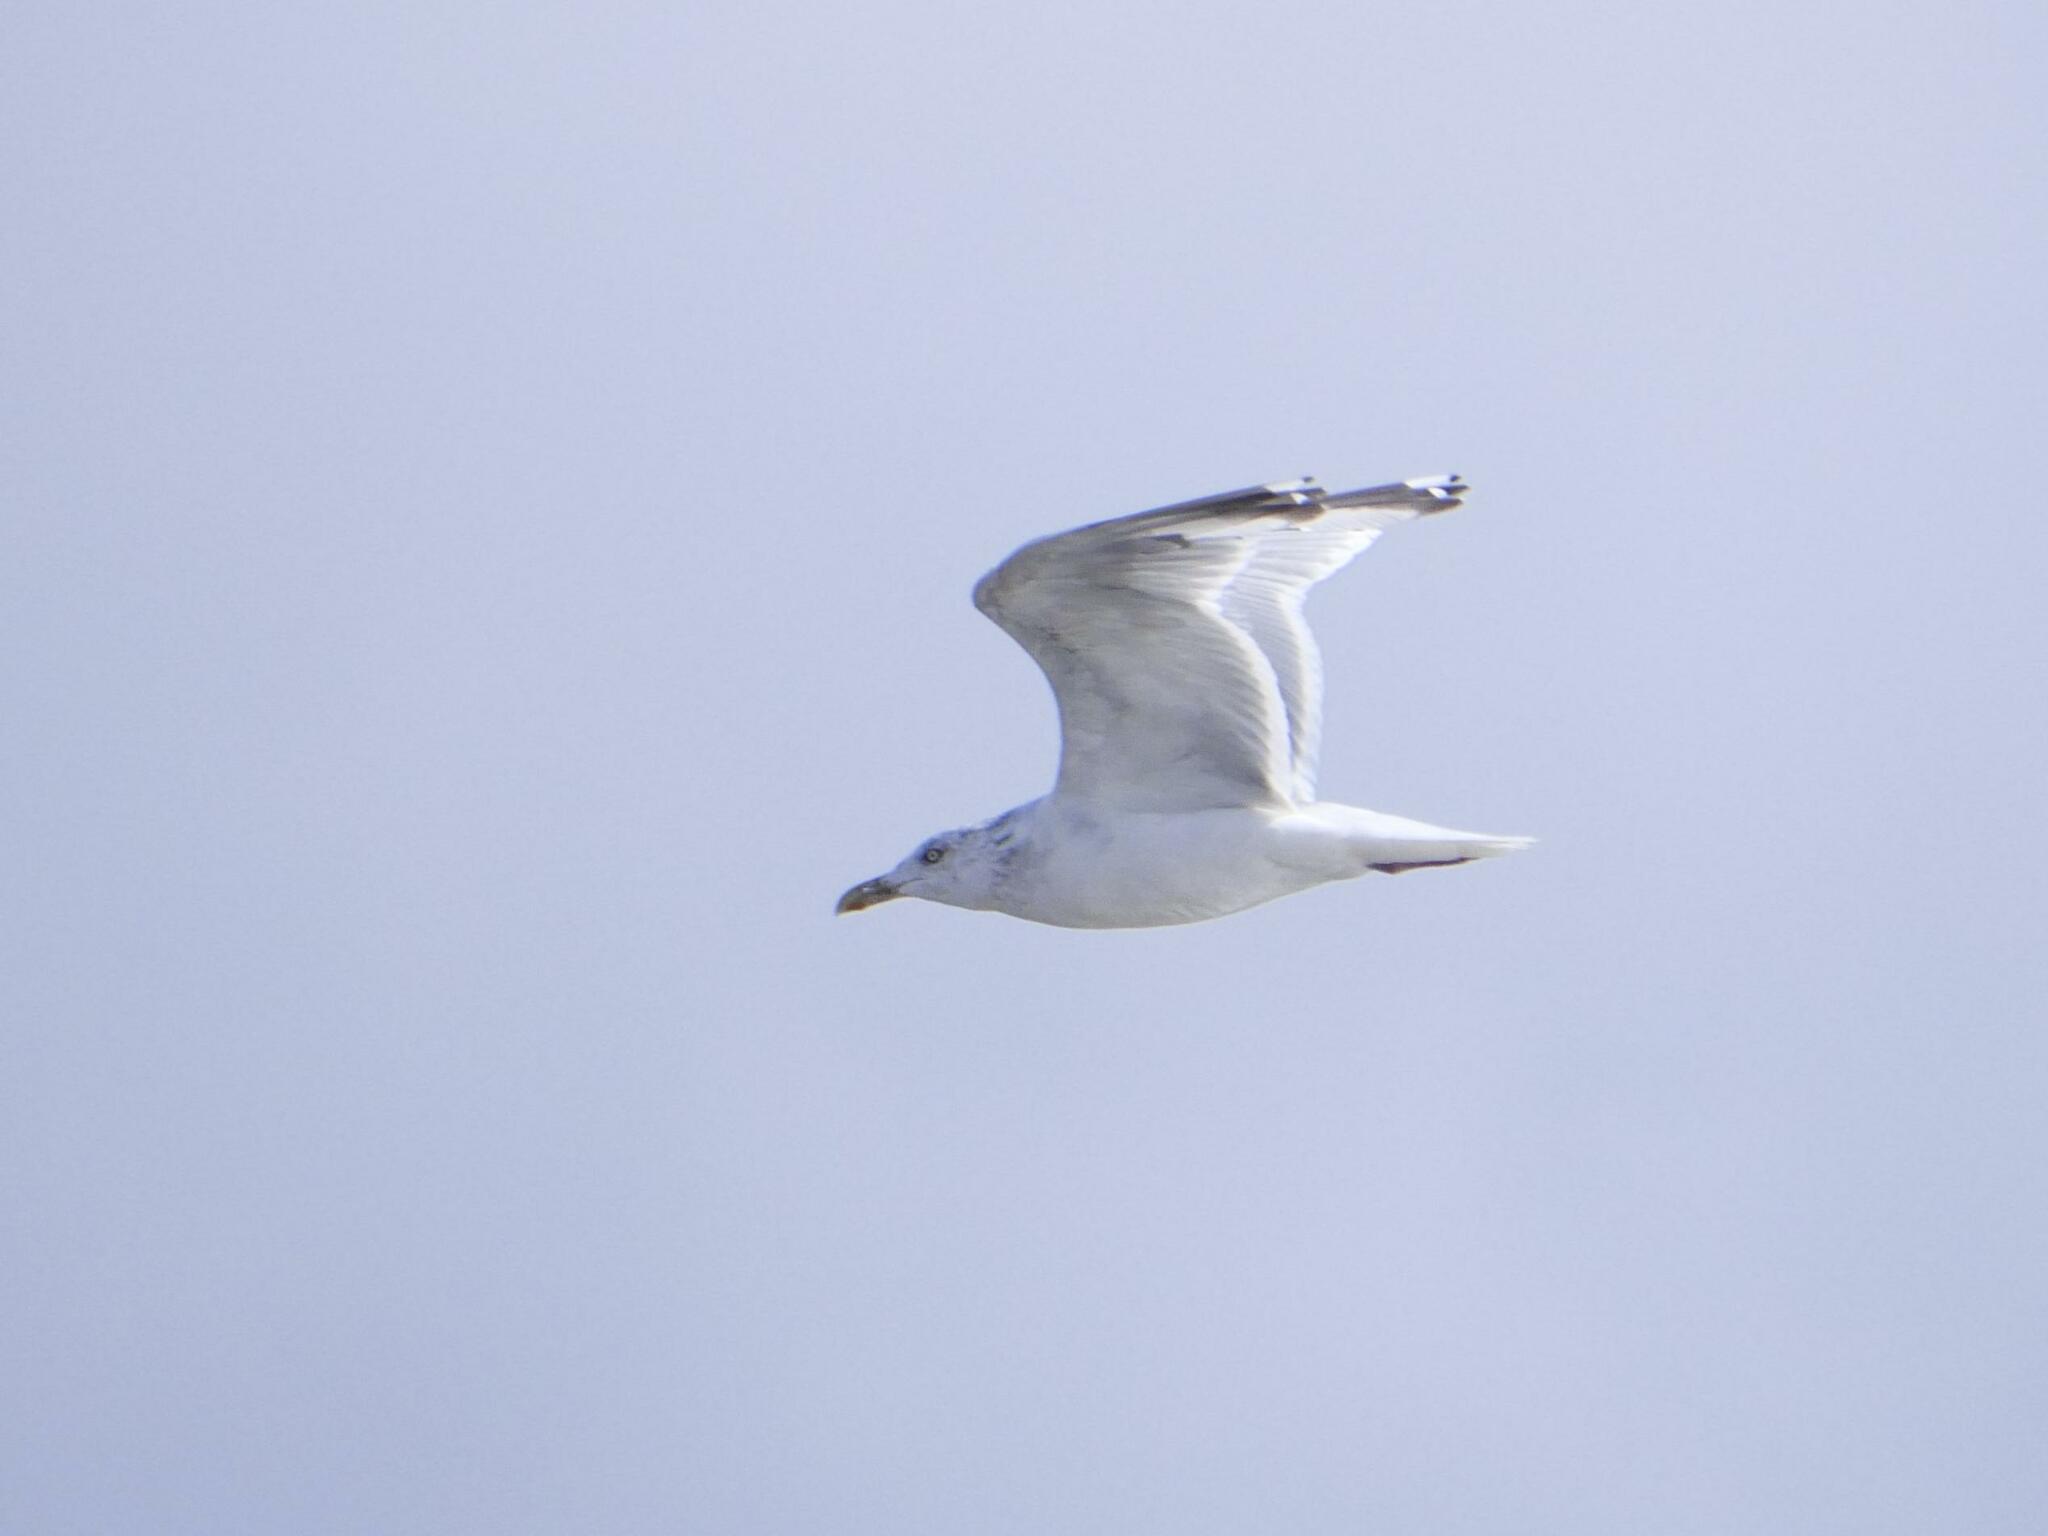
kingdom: Animalia
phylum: Chordata
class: Aves
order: Charadriiformes
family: Laridae
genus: Larus
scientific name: Larus argentatus
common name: Herring gull
